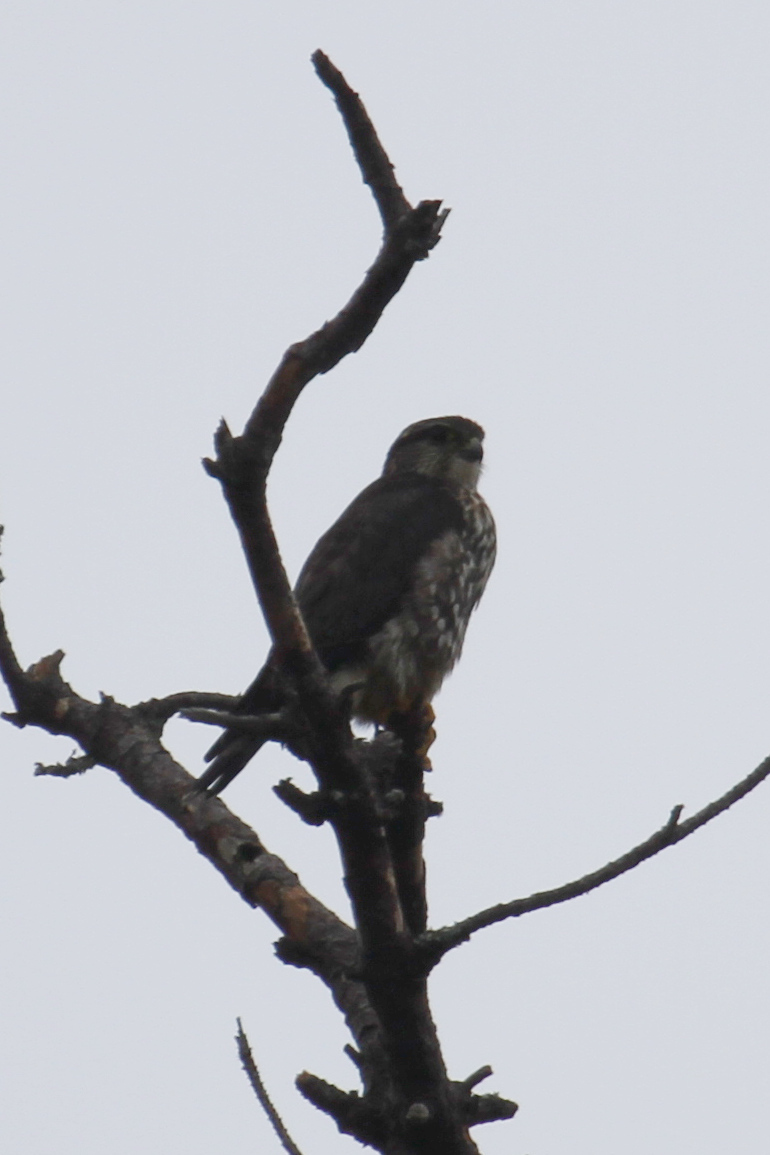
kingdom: Animalia
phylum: Chordata
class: Aves
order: Falconiformes
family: Falconidae
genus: Falco
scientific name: Falco columbarius
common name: Merlin
